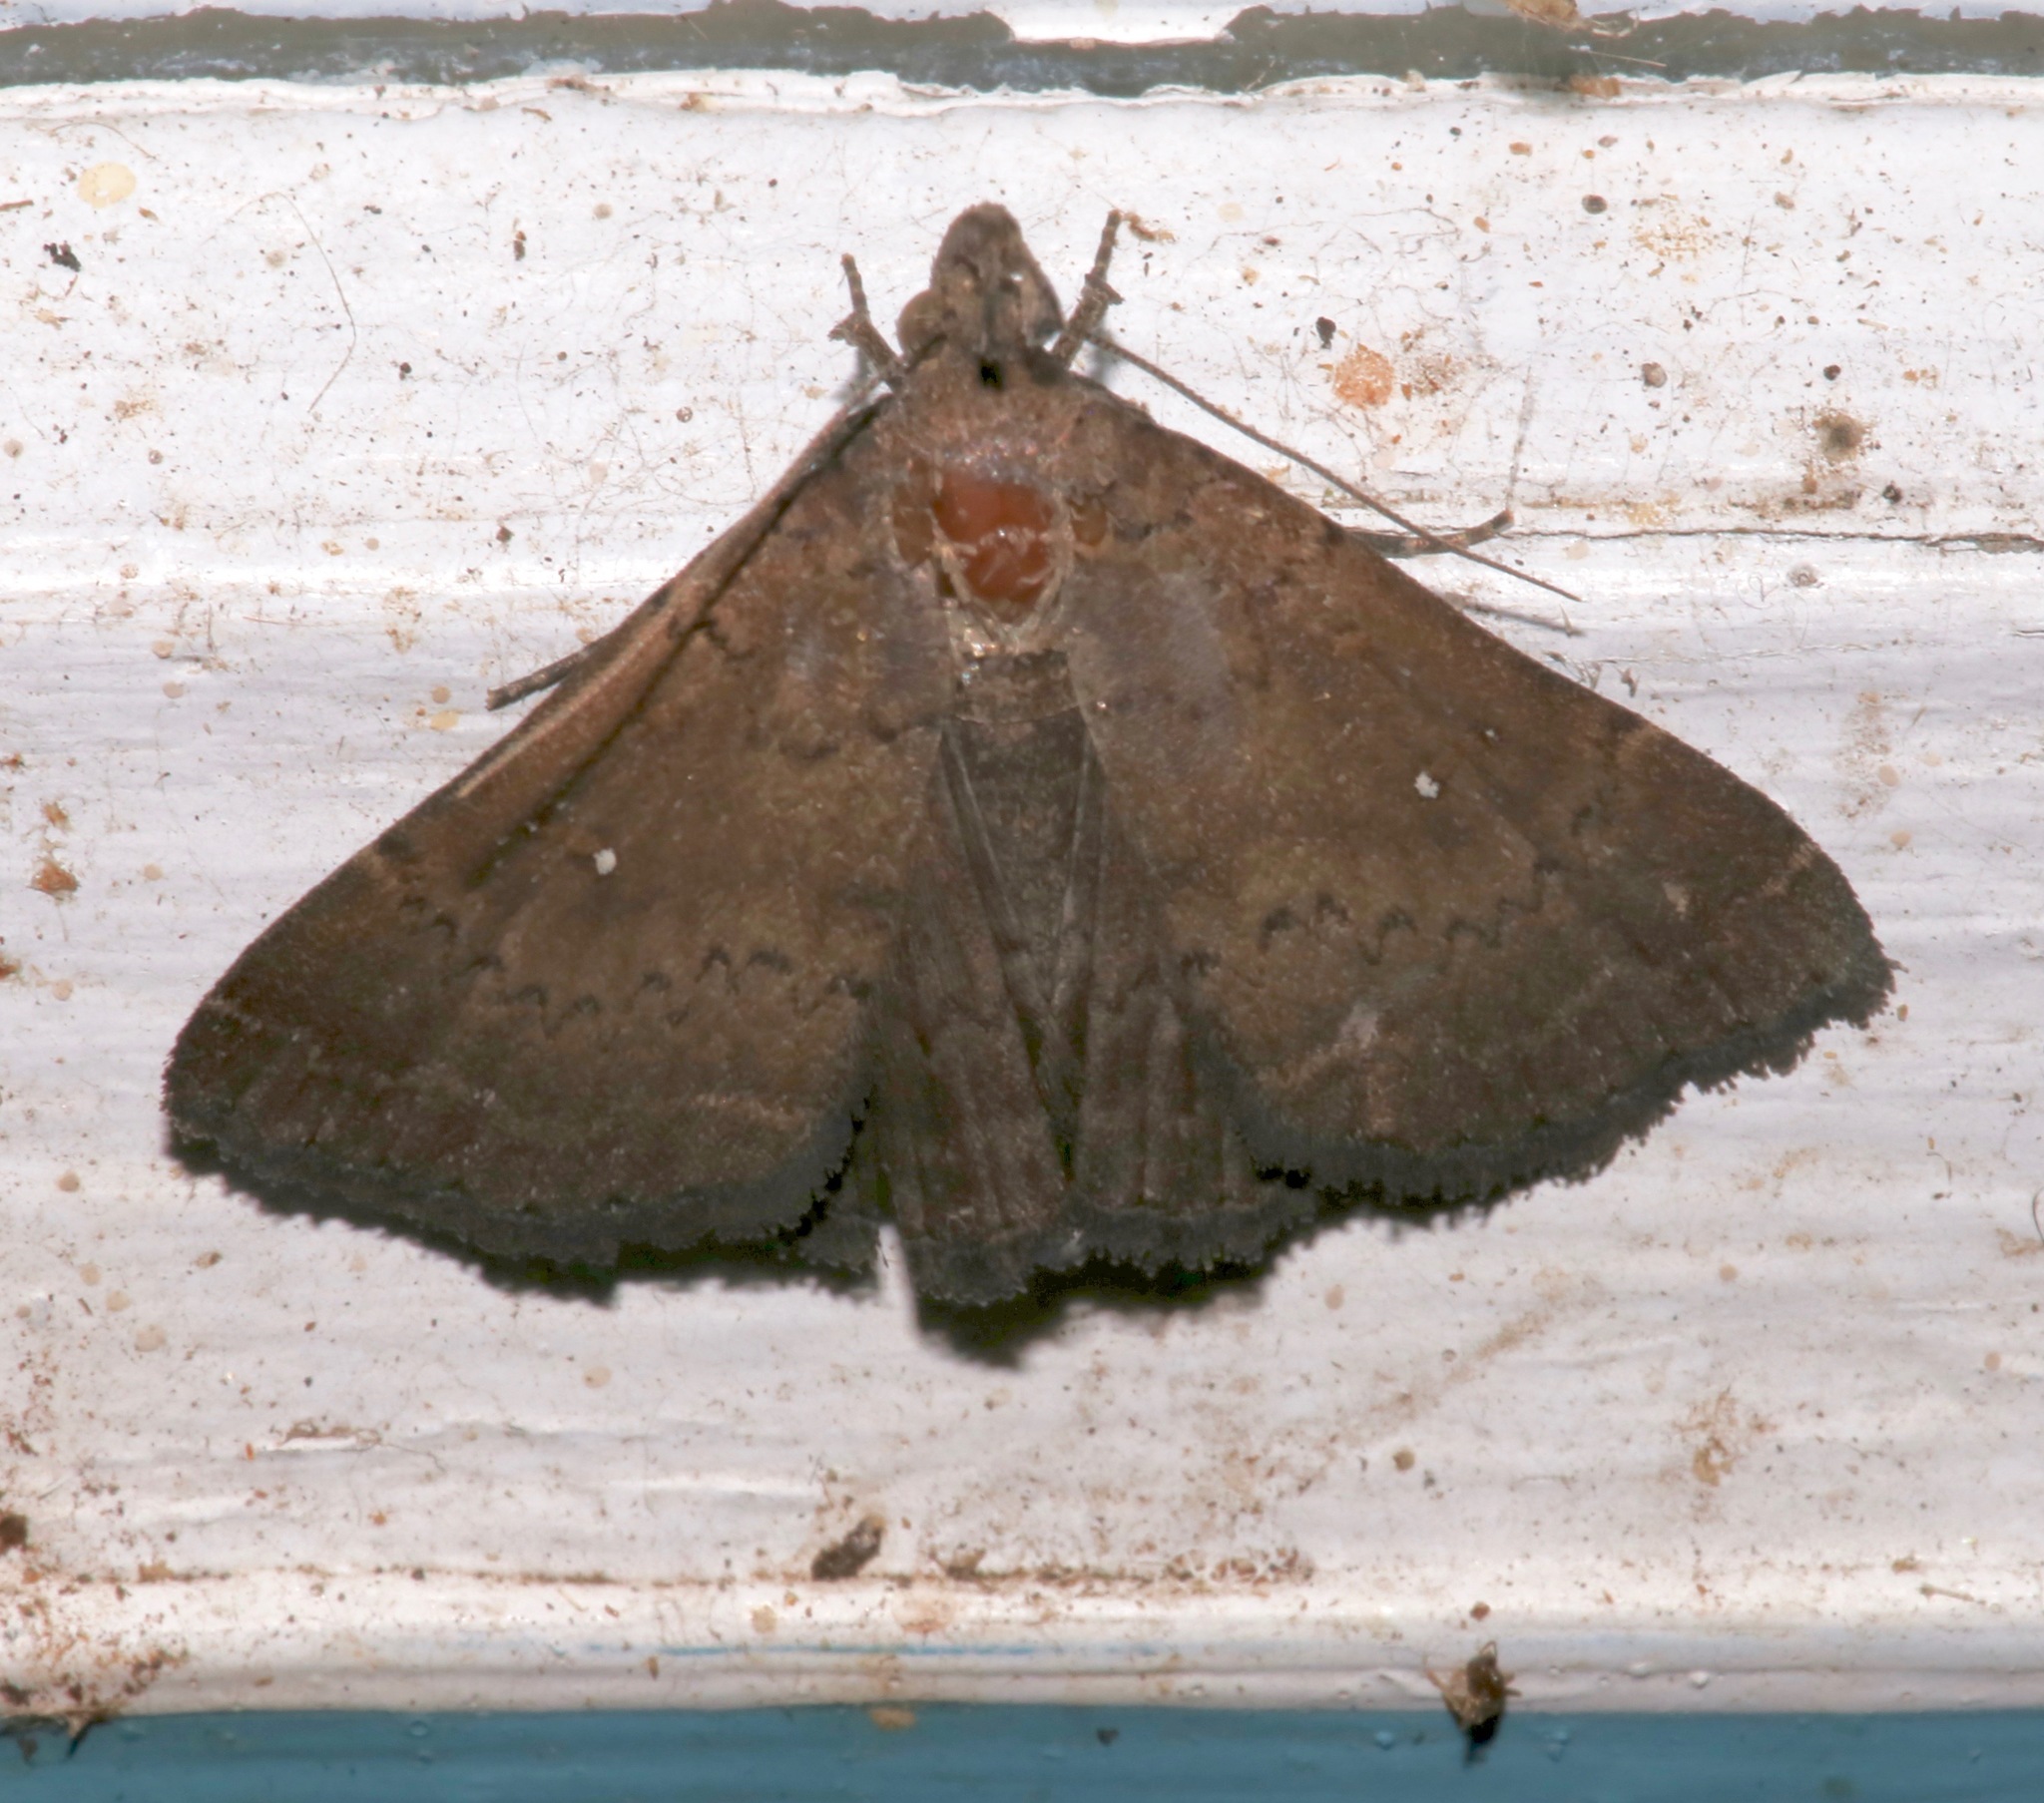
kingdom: Animalia
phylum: Arthropoda
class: Insecta
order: Lepidoptera
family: Erebidae
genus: Hypenula
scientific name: Hypenula cacuminalis
